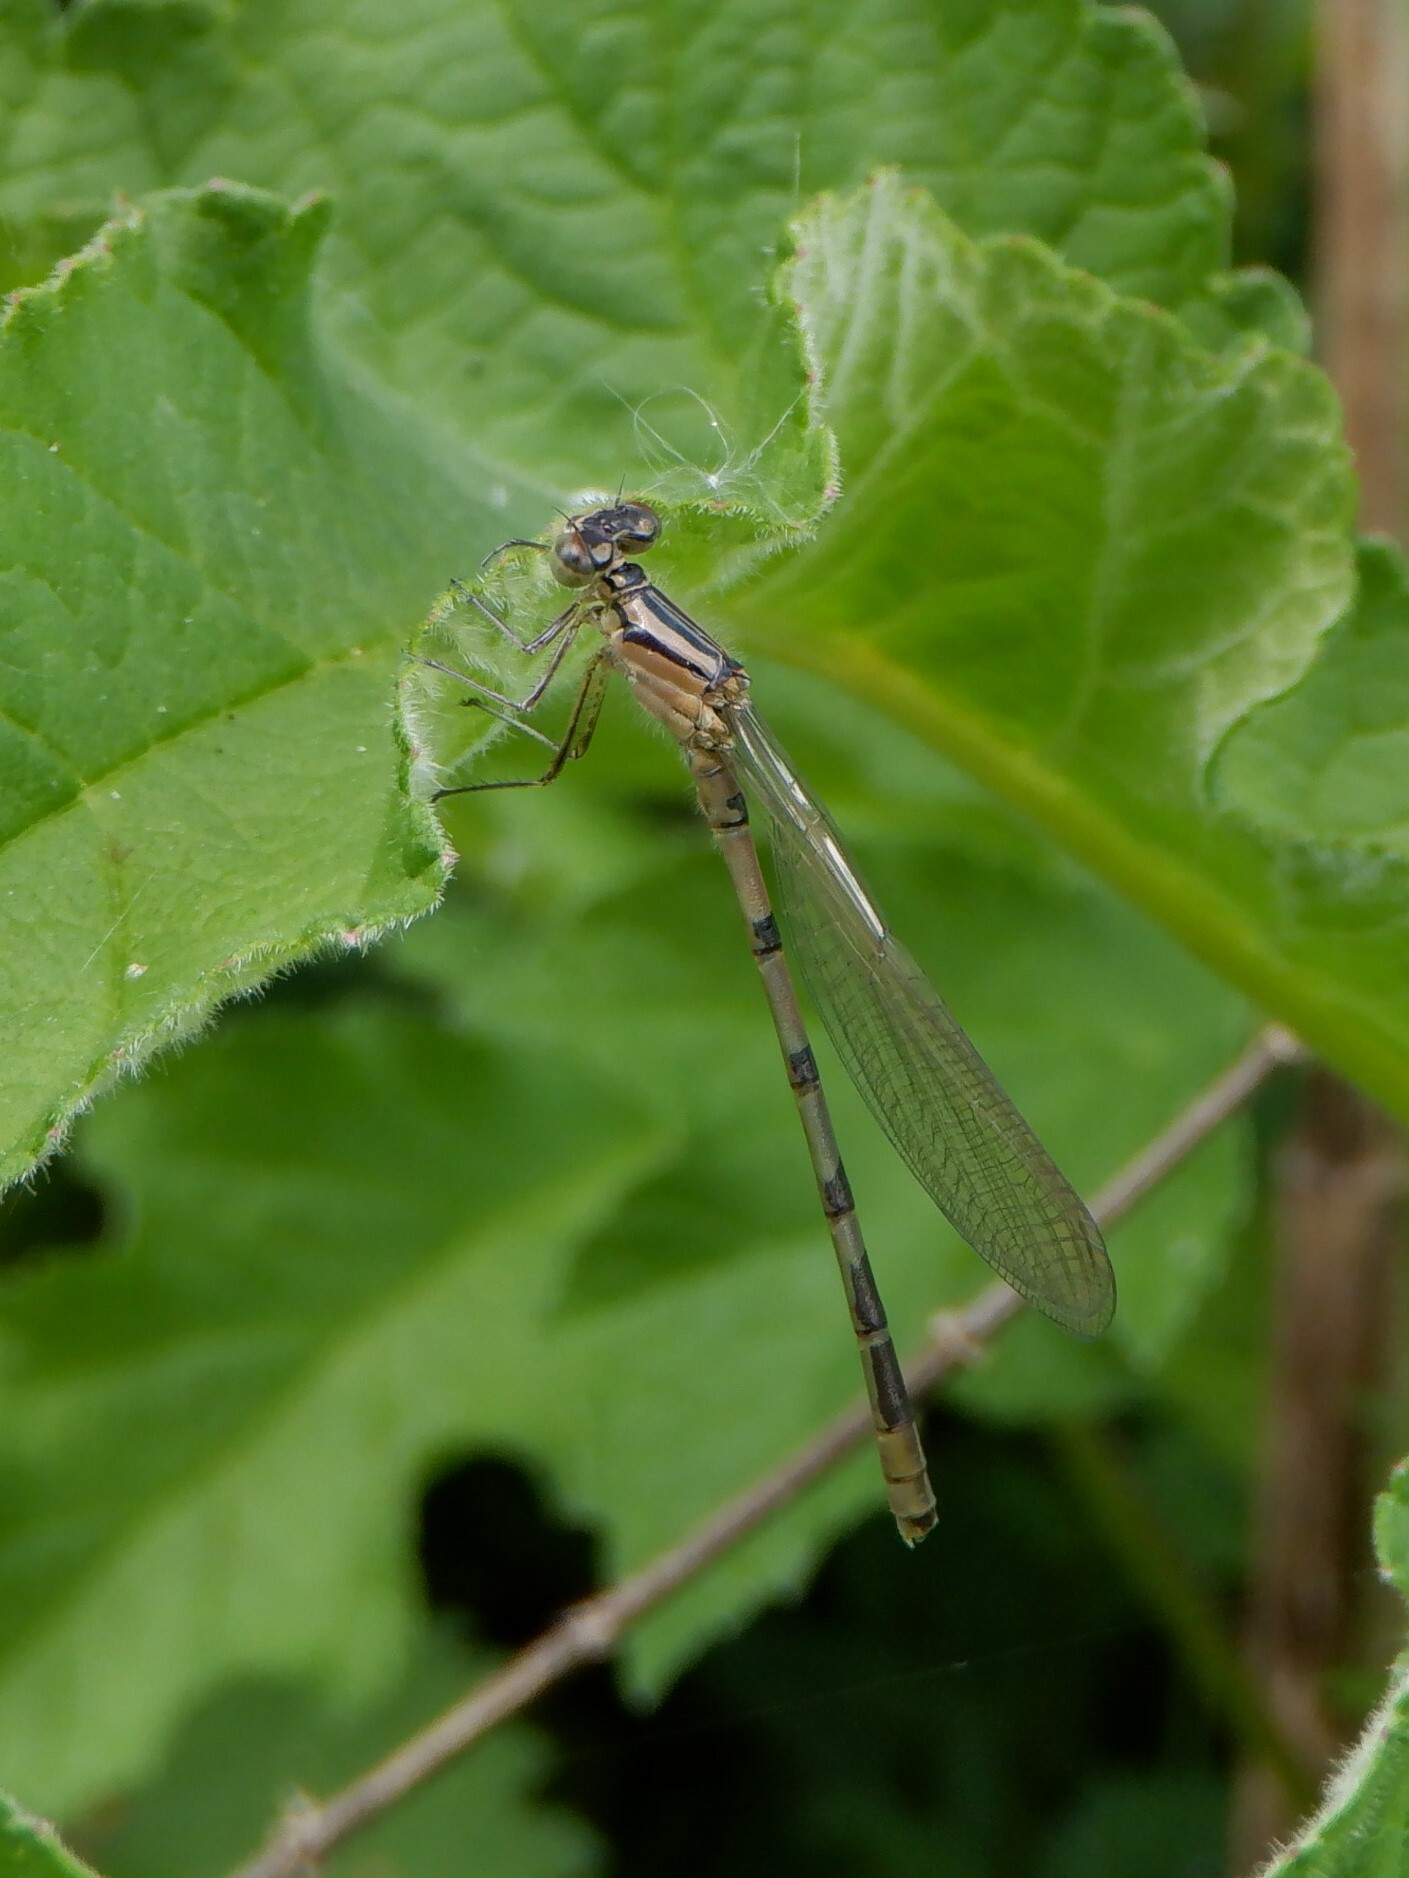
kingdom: Animalia
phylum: Arthropoda
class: Insecta
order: Odonata
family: Coenagrionidae
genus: Enallagma
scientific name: Enallagma cyathigerum
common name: Common blue damselfly
